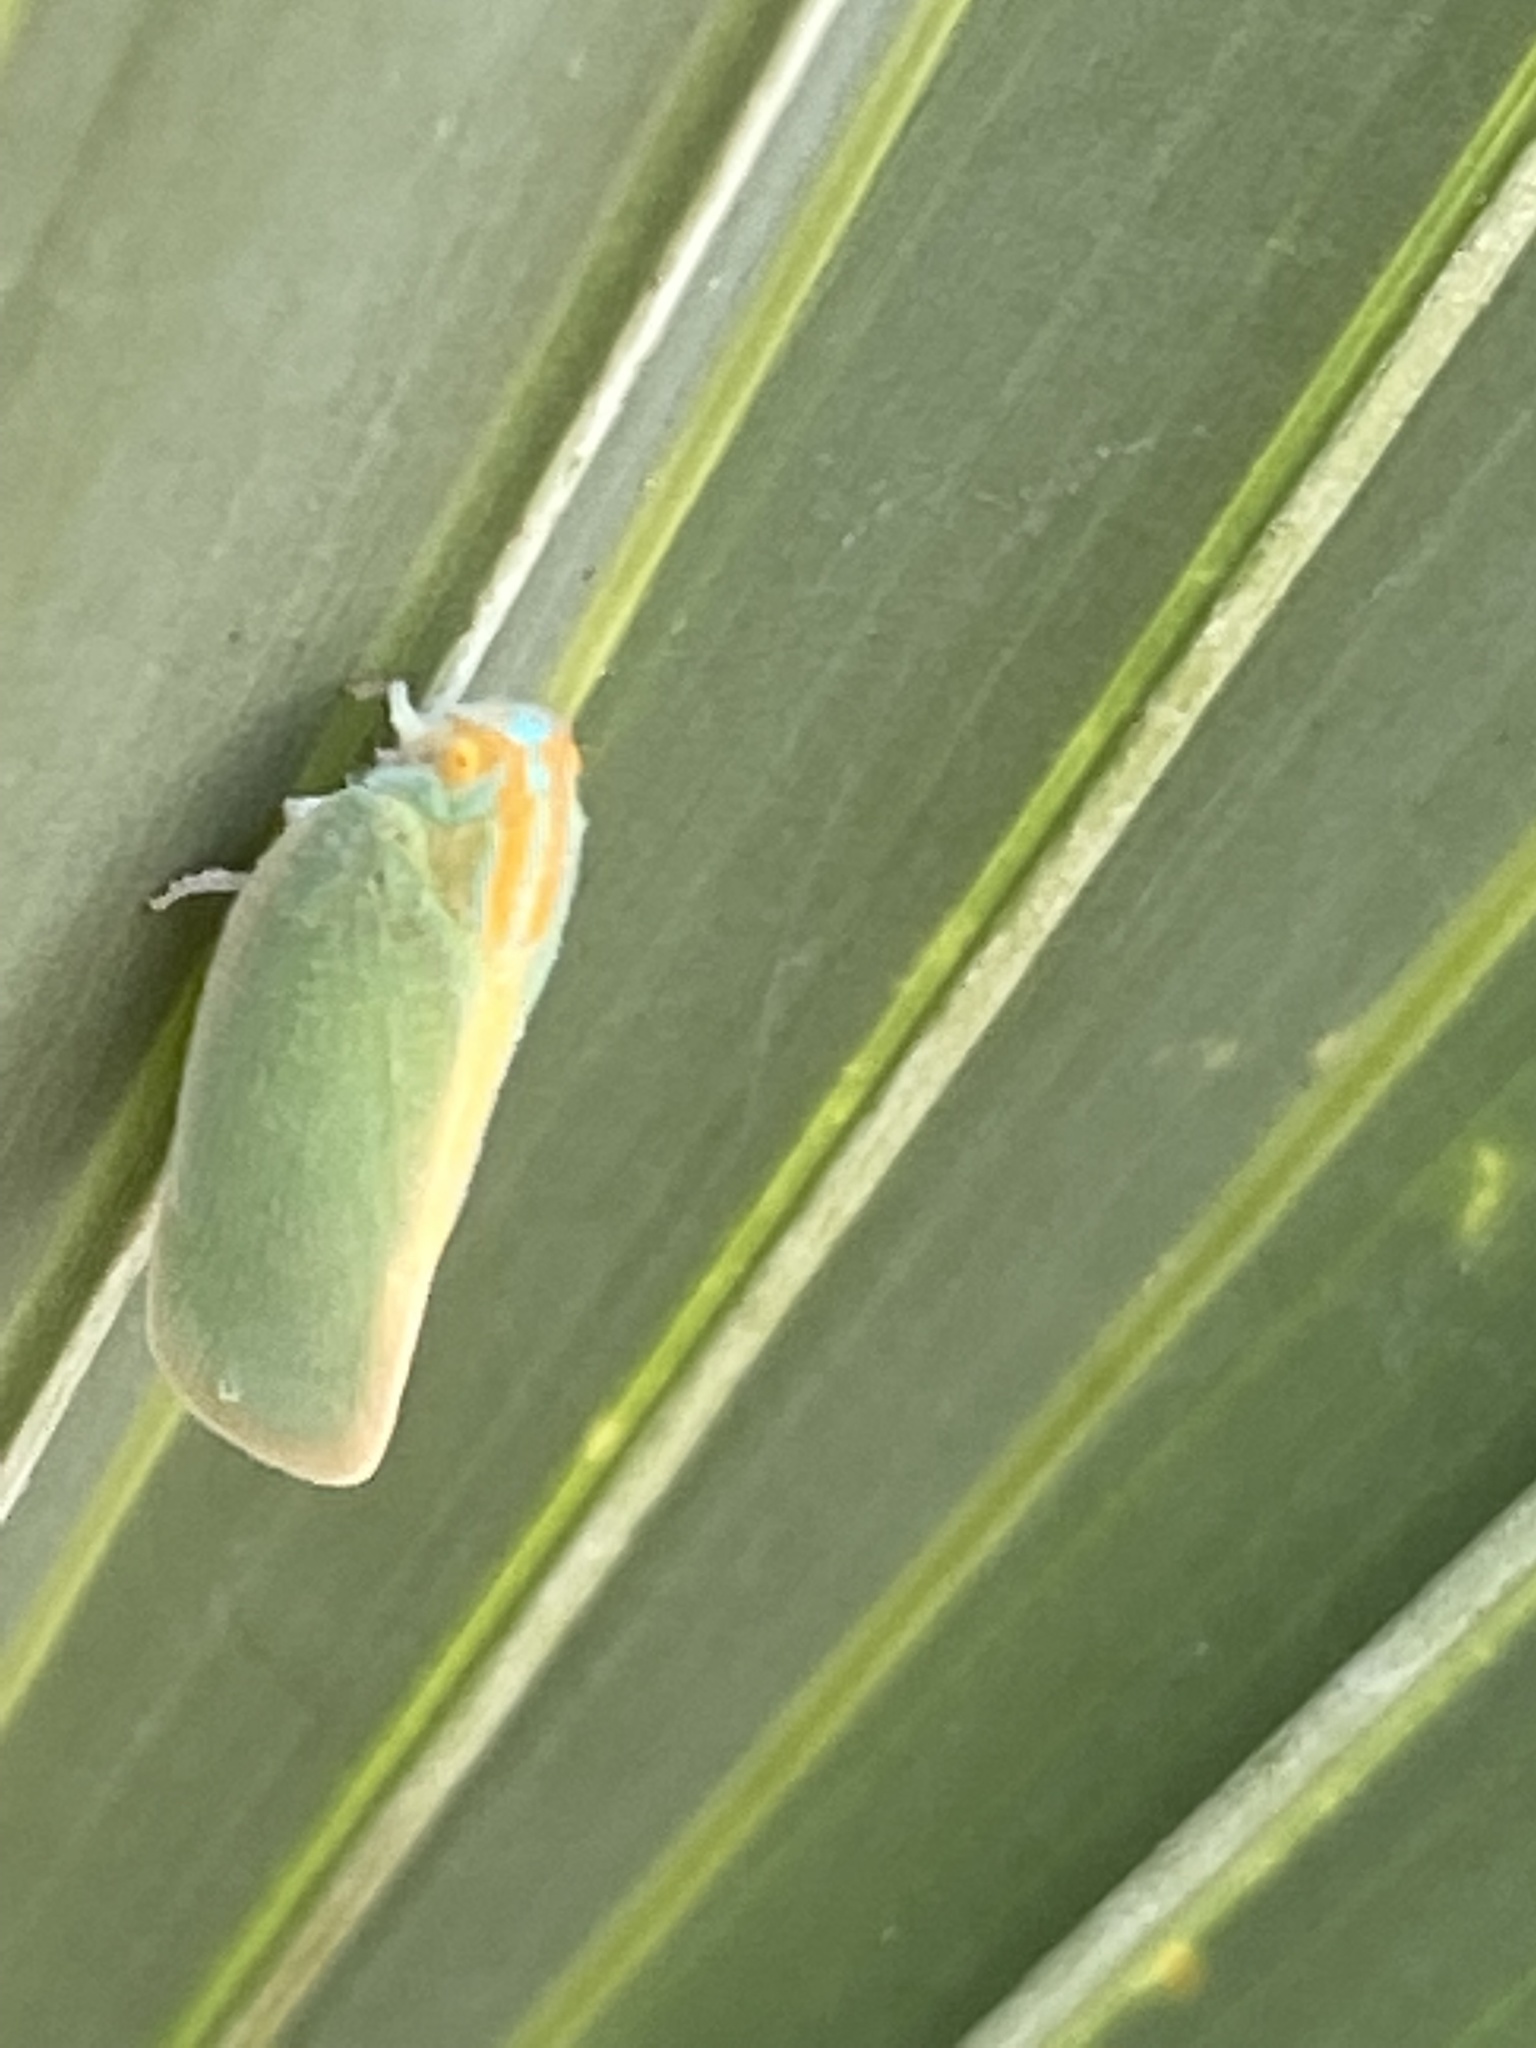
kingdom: Animalia
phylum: Arthropoda
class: Insecta
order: Hemiptera
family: Flatidae
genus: Ormenaria
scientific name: Ormenaria rufifascia
